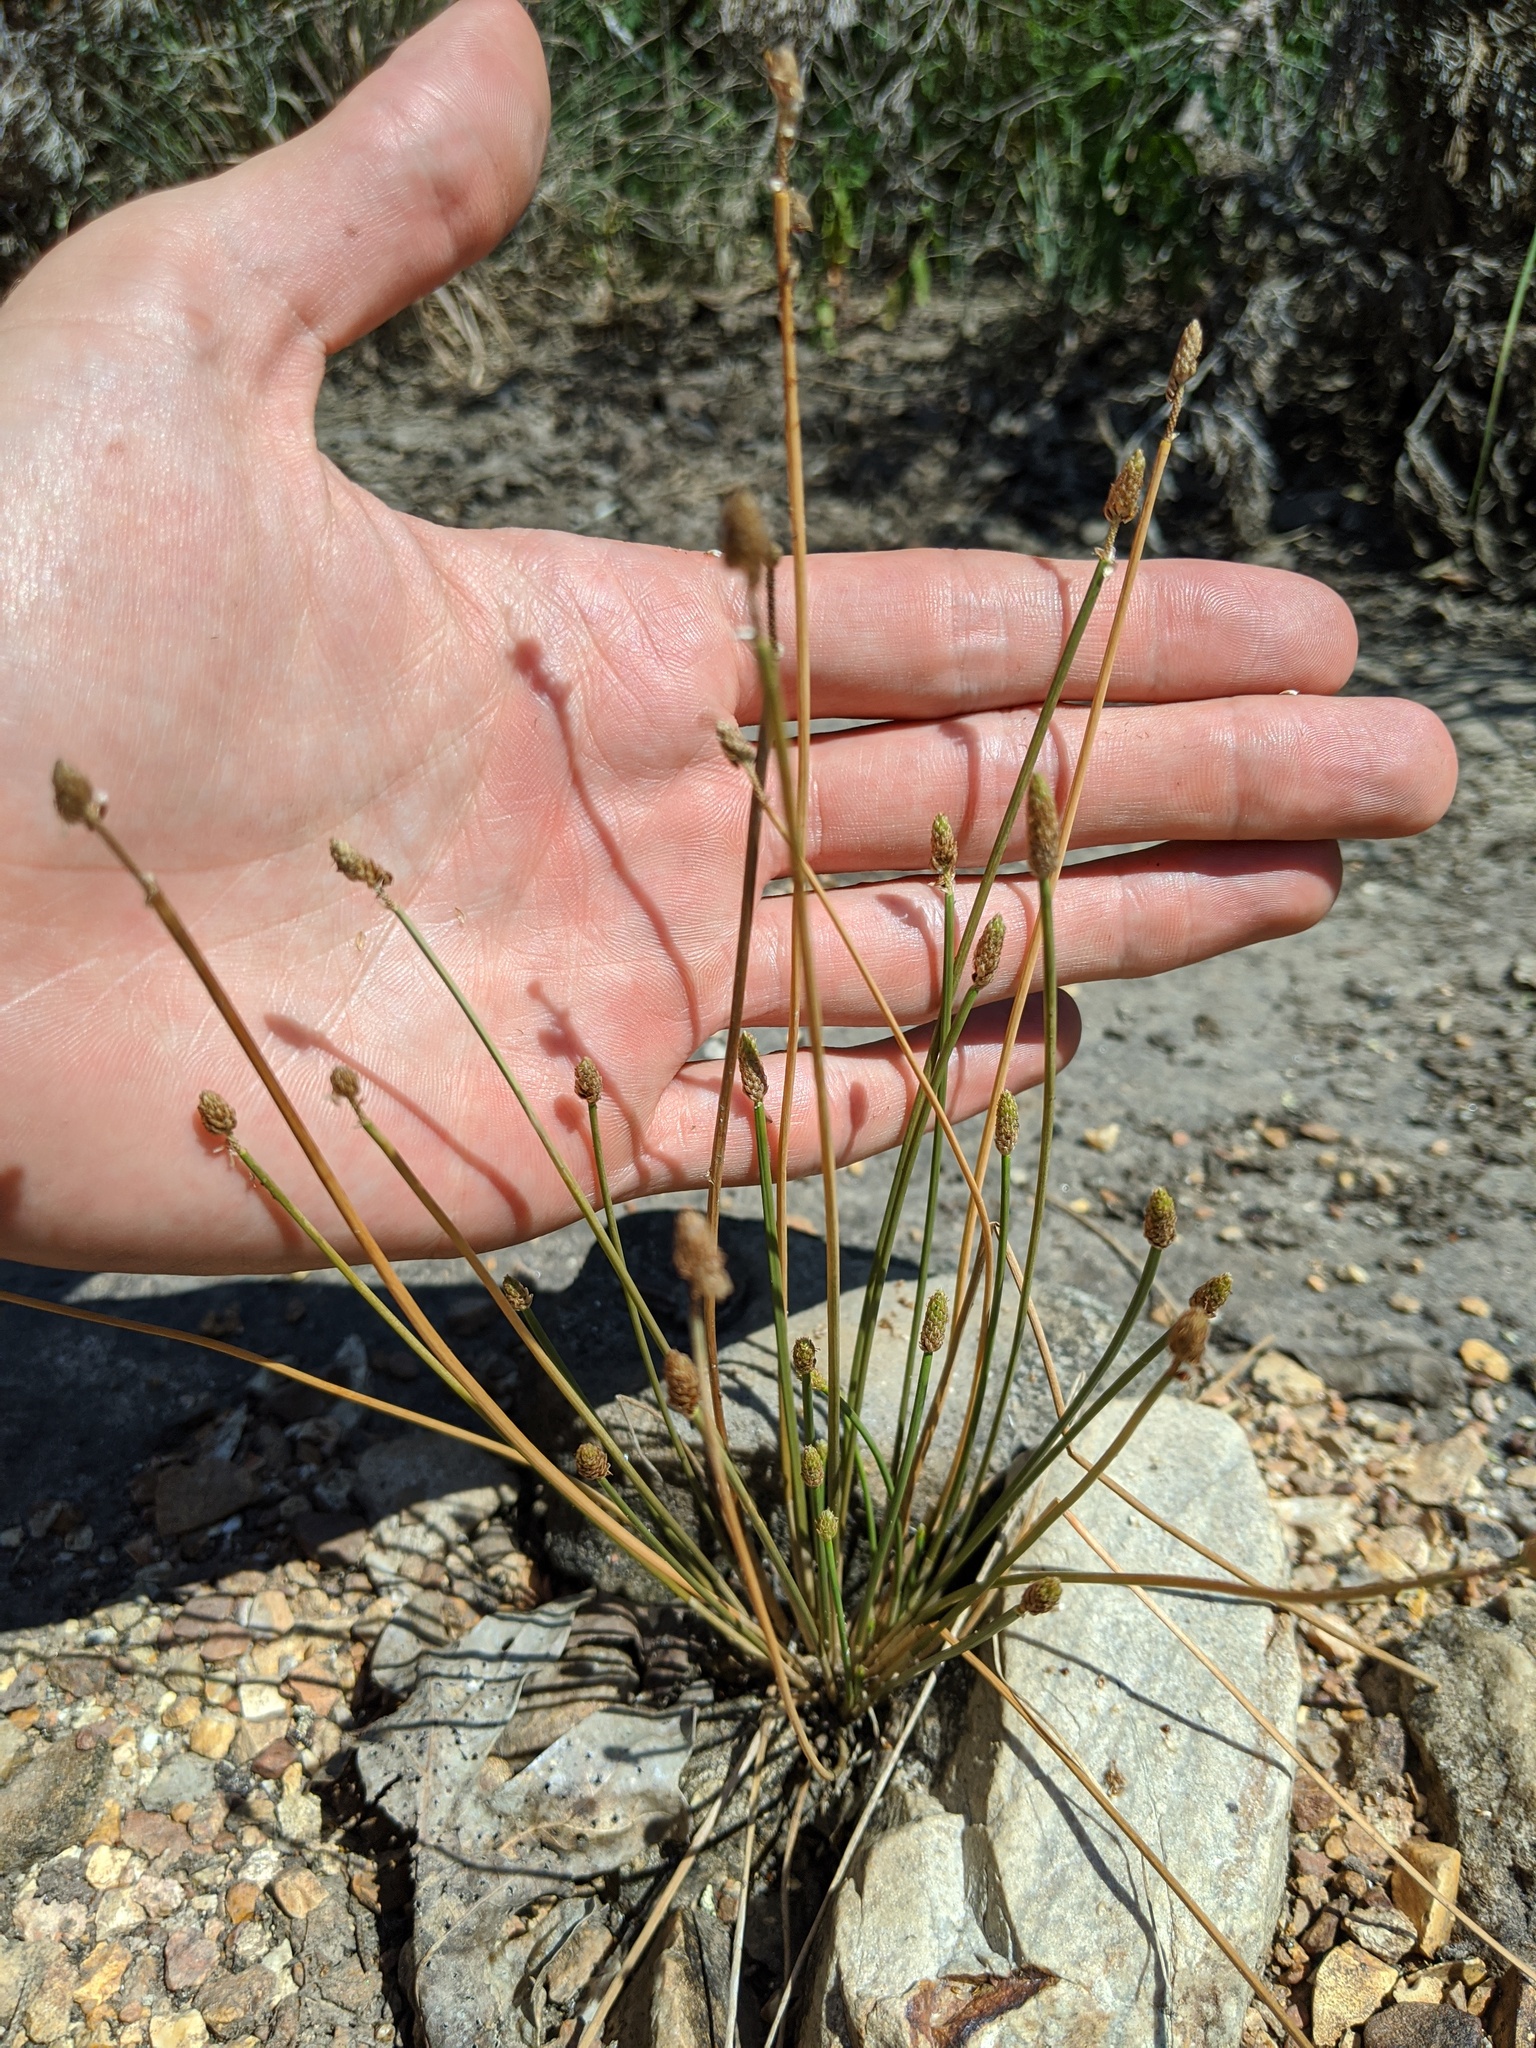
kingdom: Plantae
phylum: Tracheophyta
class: Liliopsida
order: Poales
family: Cyperaceae
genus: Eleocharis
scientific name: Eleocharis obtusa
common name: Blunt spikerush
